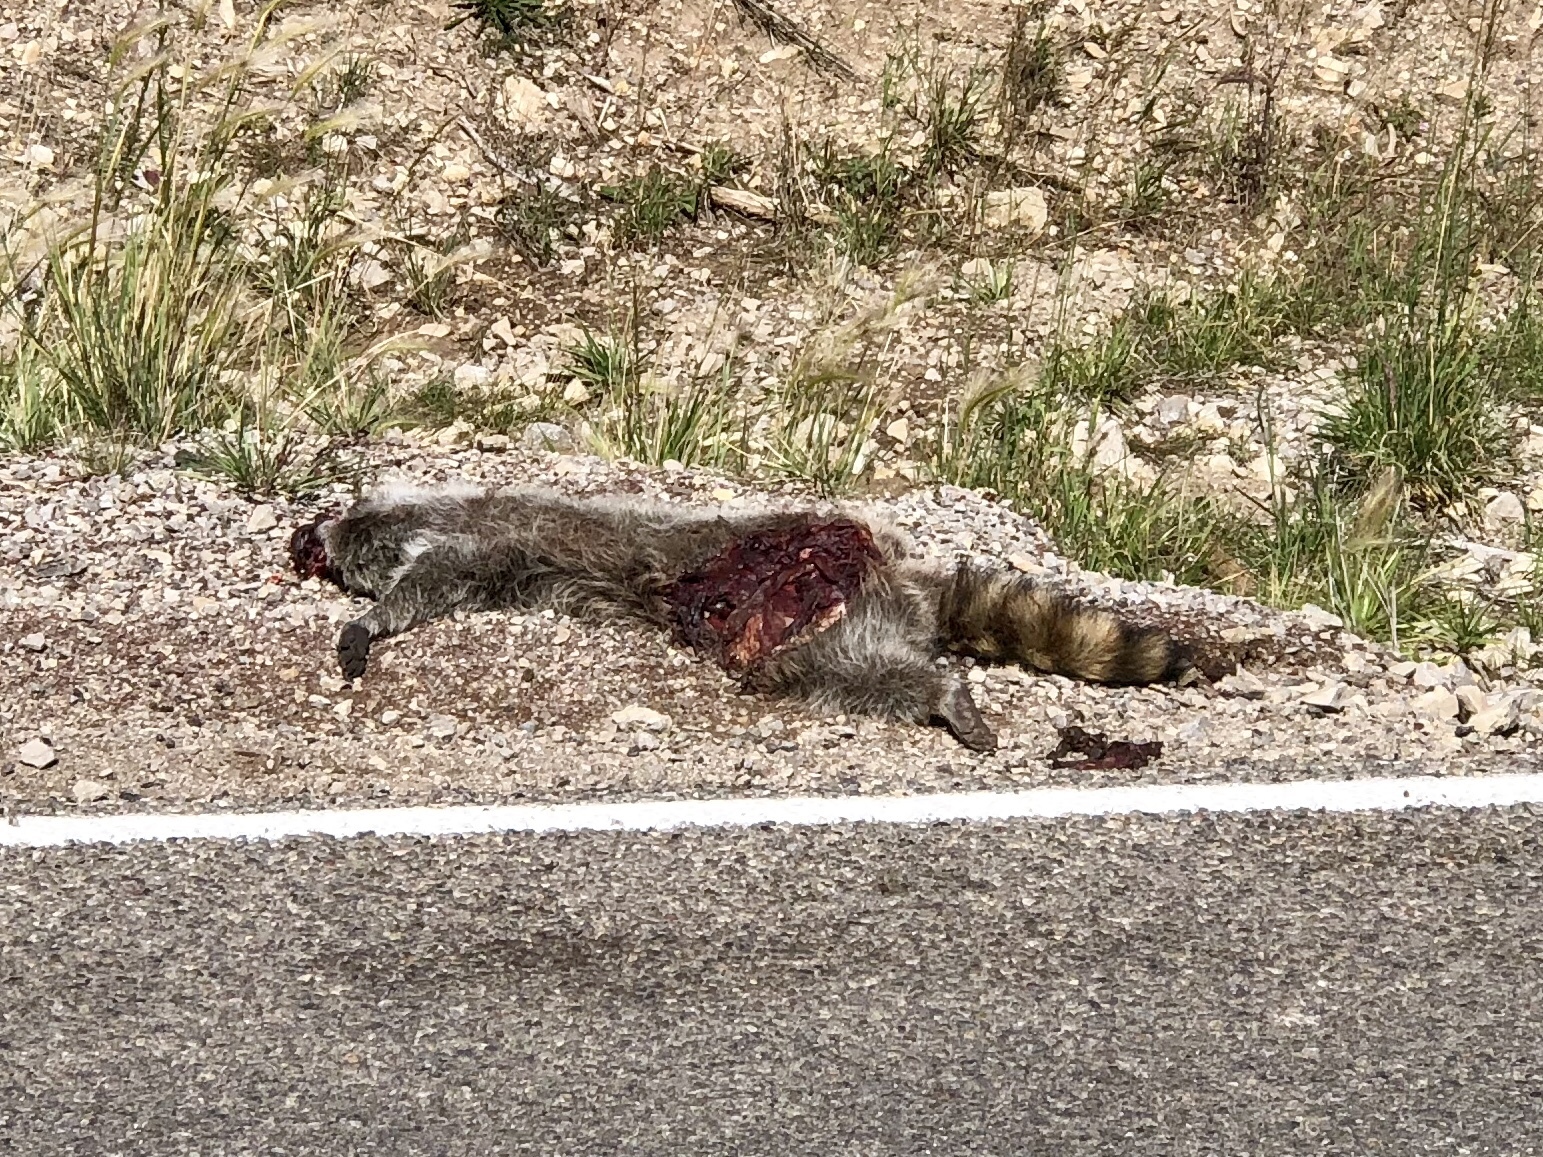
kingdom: Animalia
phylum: Chordata
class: Mammalia
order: Carnivora
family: Procyonidae
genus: Procyon
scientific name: Procyon lotor
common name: Raccoon
